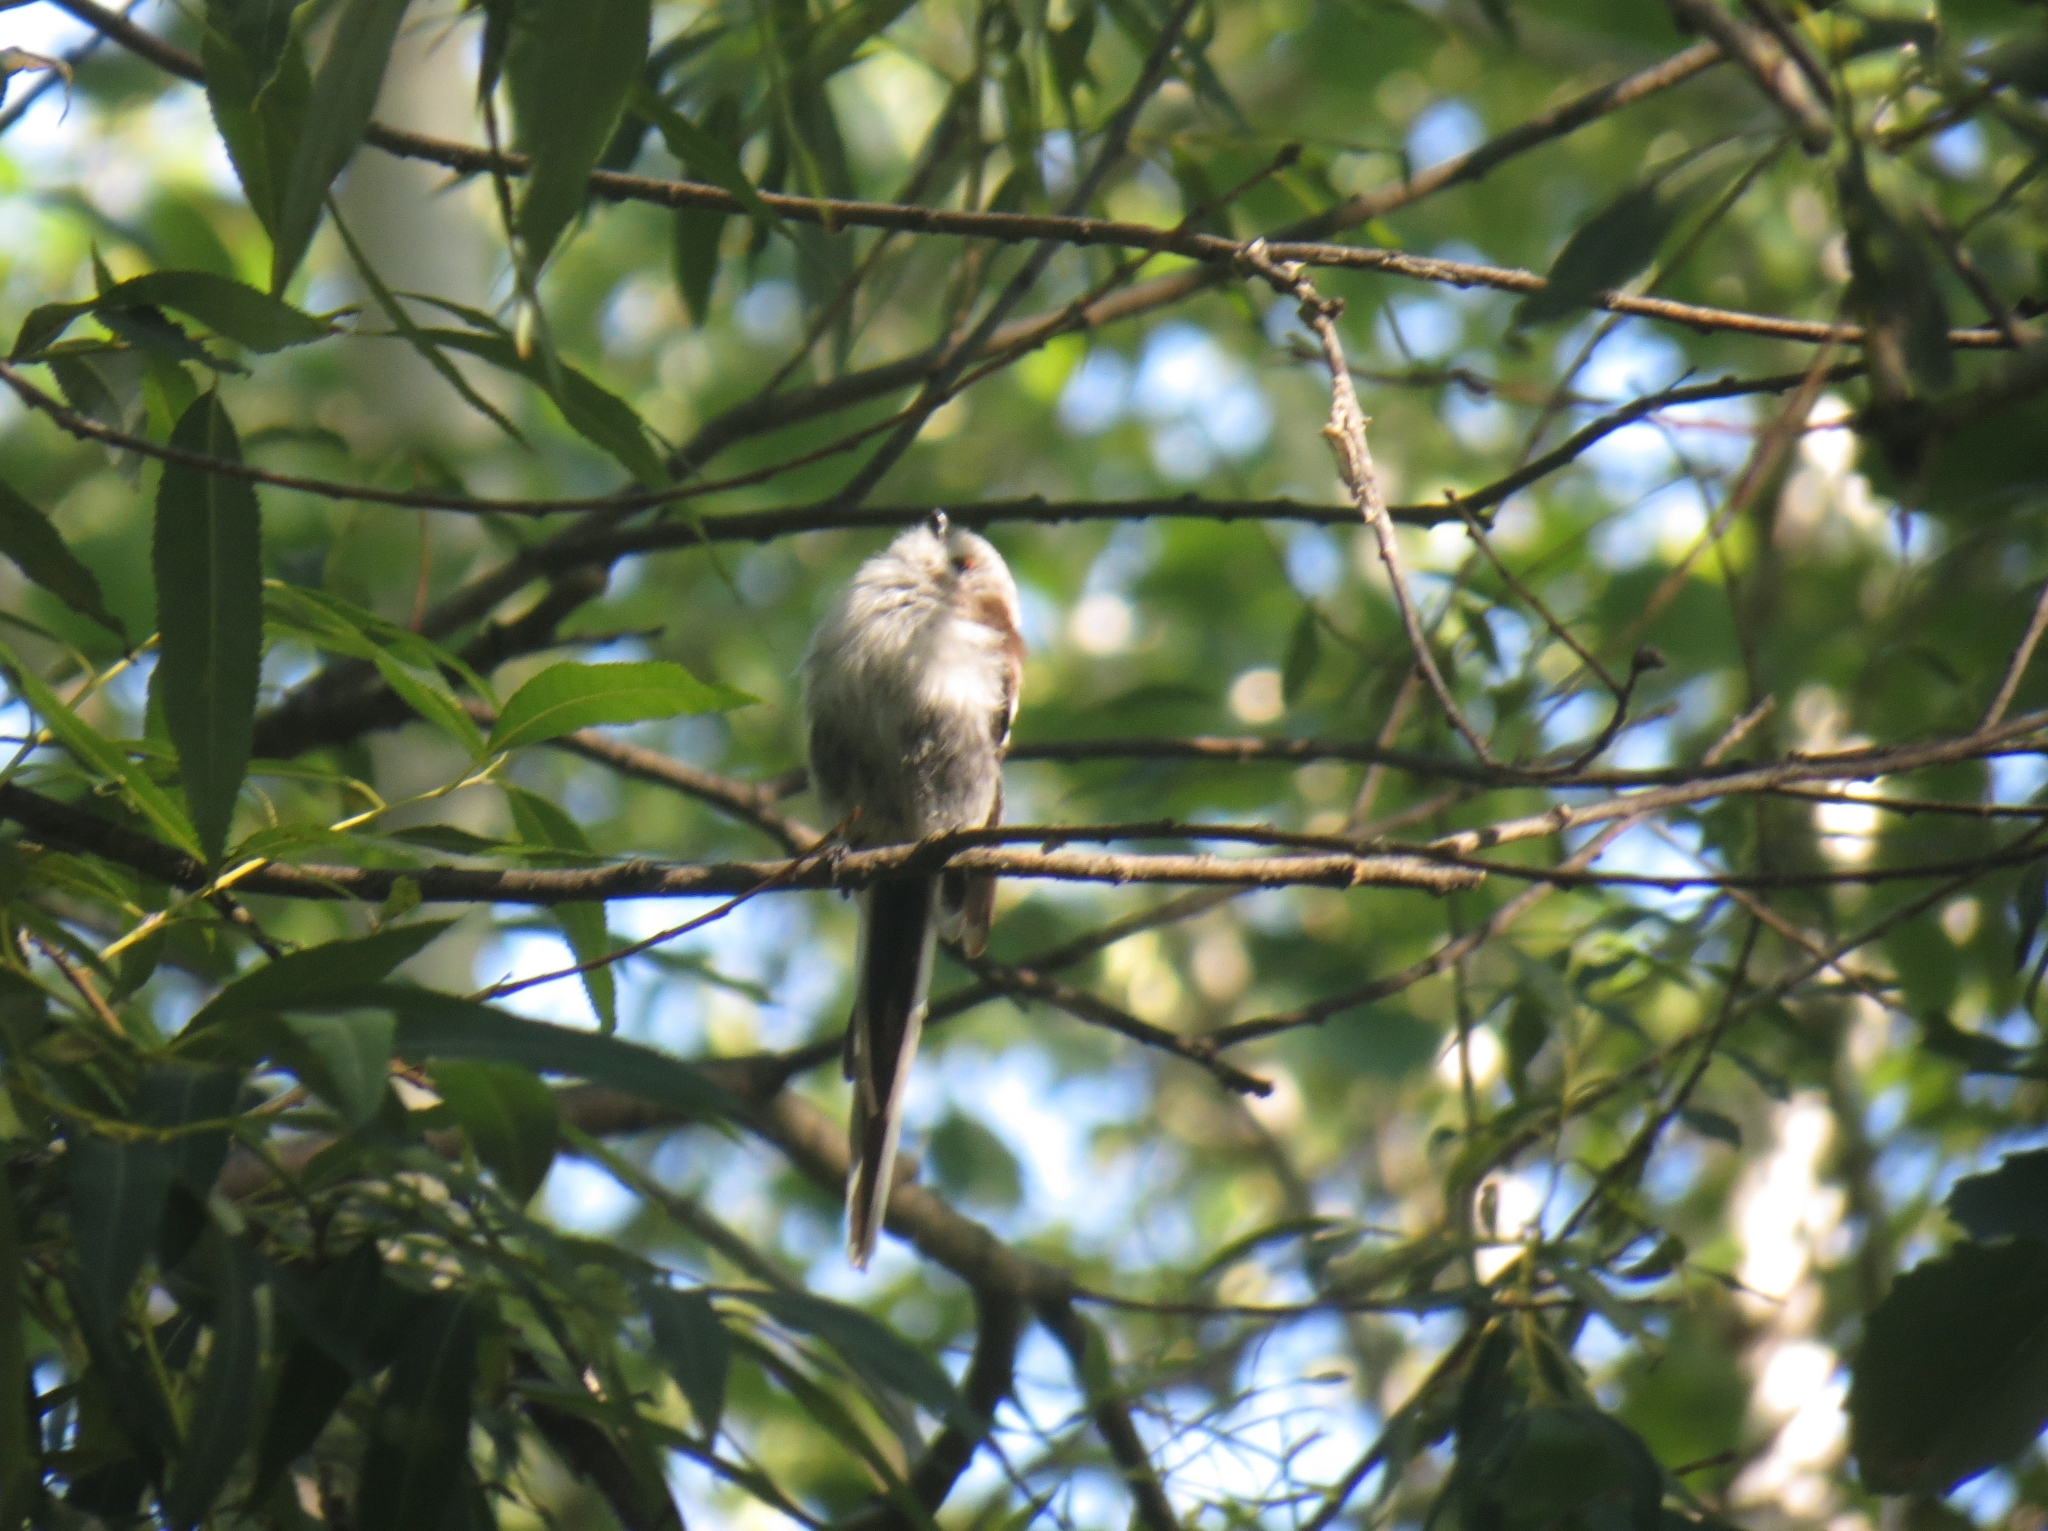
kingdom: Animalia
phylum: Chordata
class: Aves
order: Passeriformes
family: Aegithalidae
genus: Aegithalos
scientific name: Aegithalos caudatus
